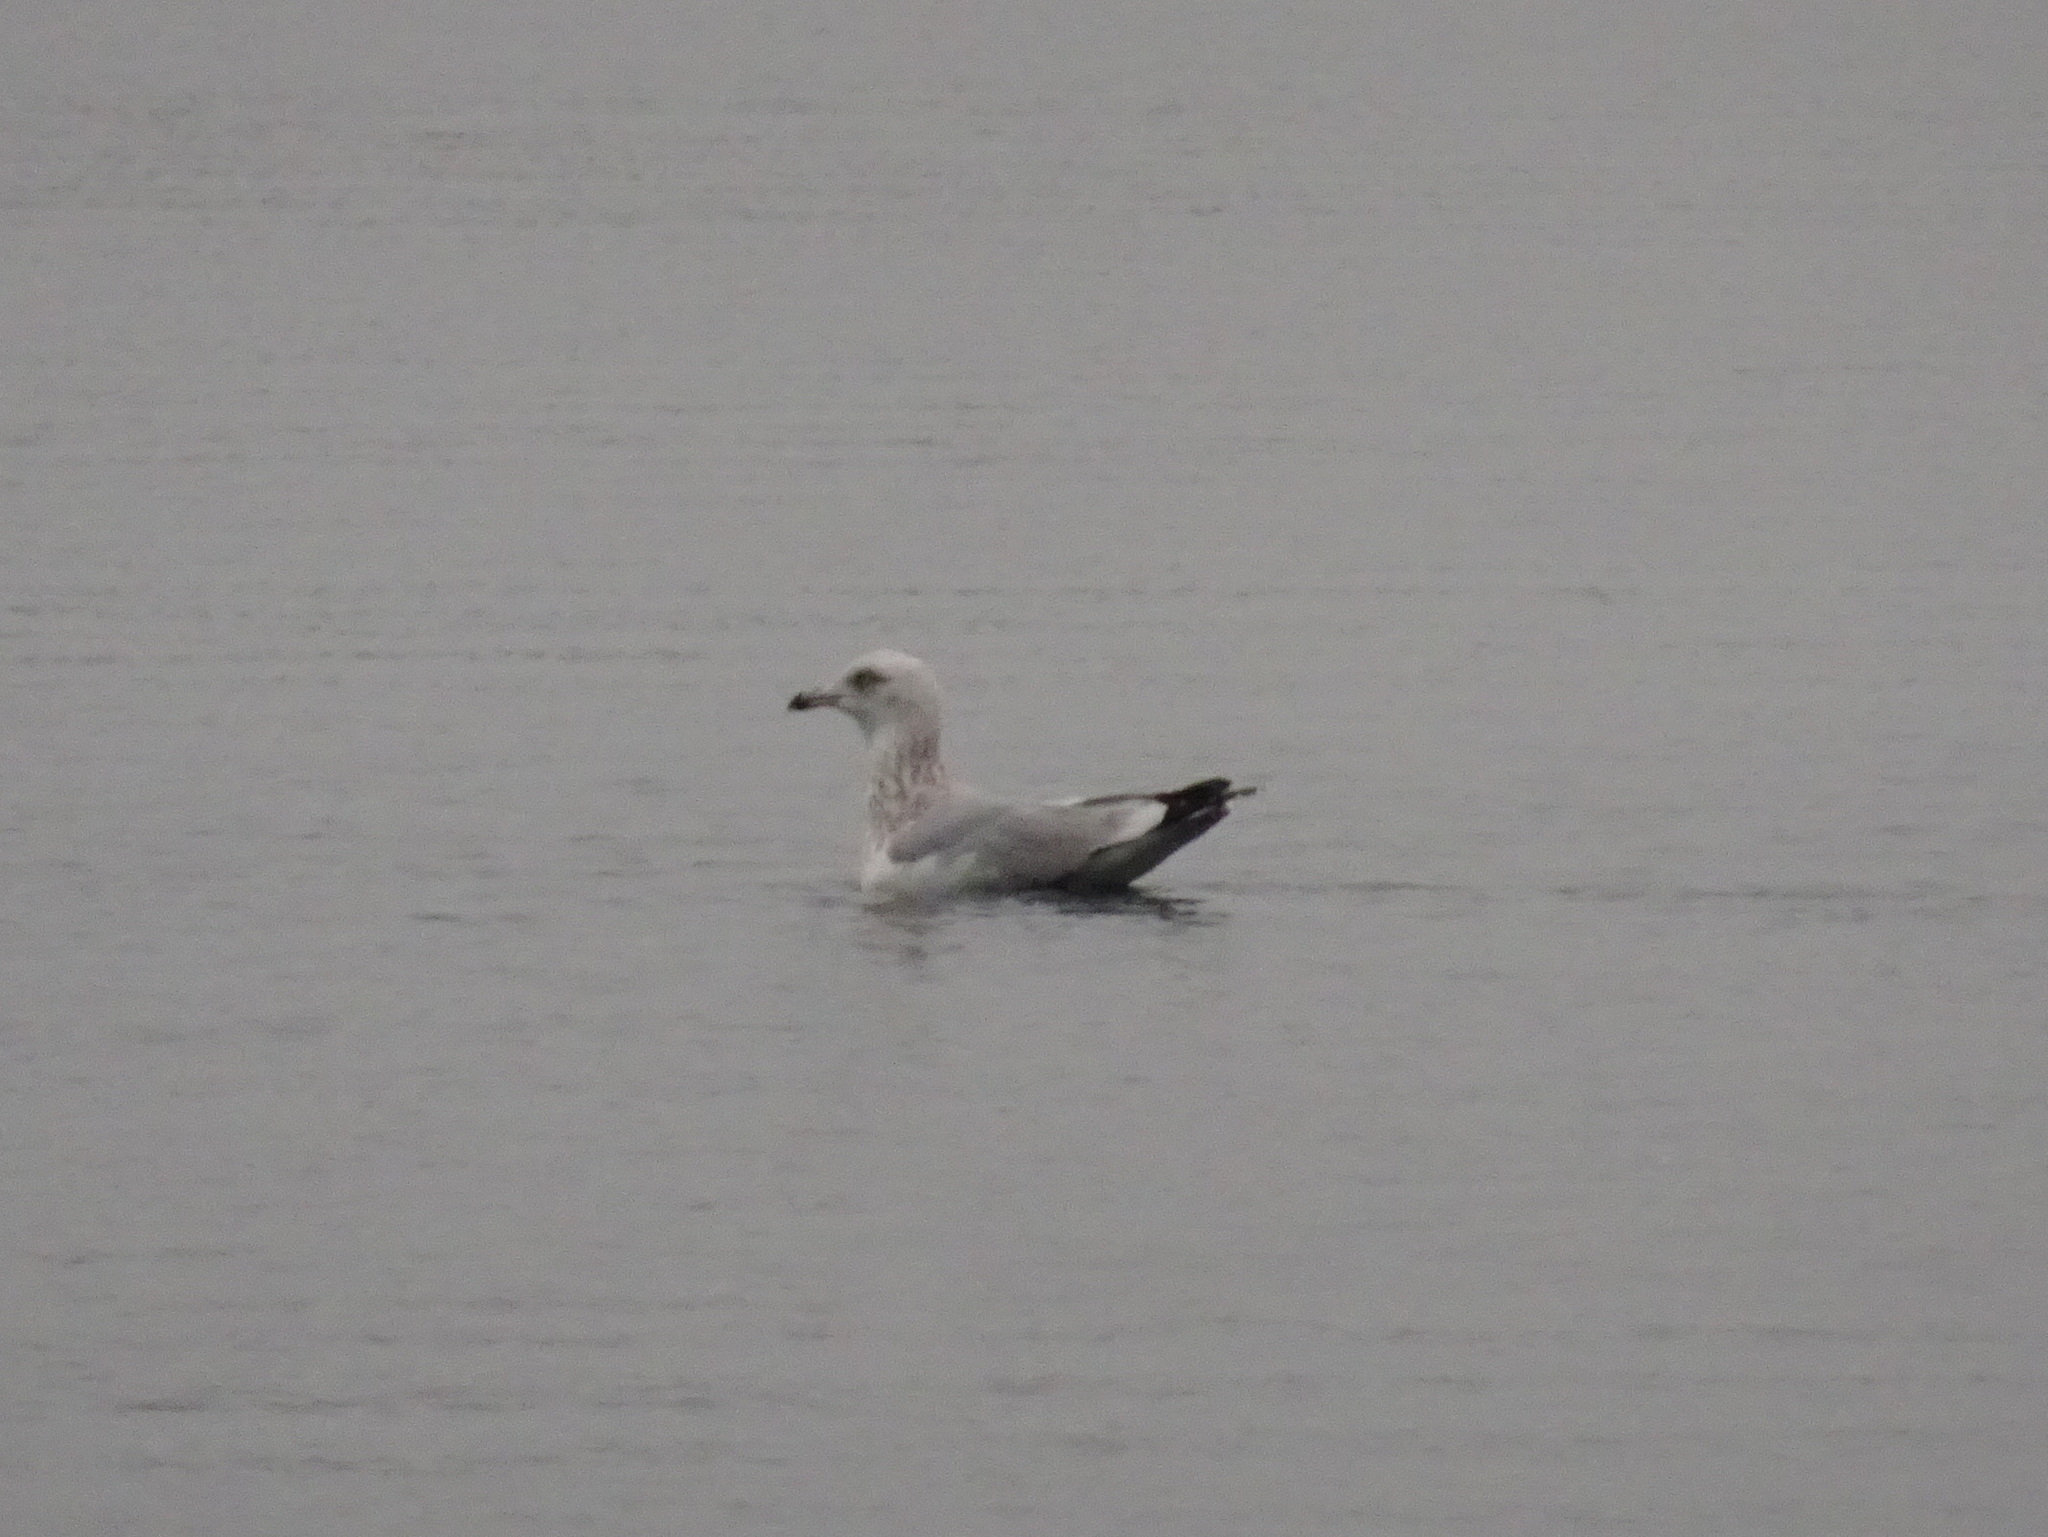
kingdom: Animalia
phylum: Chordata
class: Aves
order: Charadriiformes
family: Laridae
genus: Larus
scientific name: Larus argentatus
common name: Herring gull
